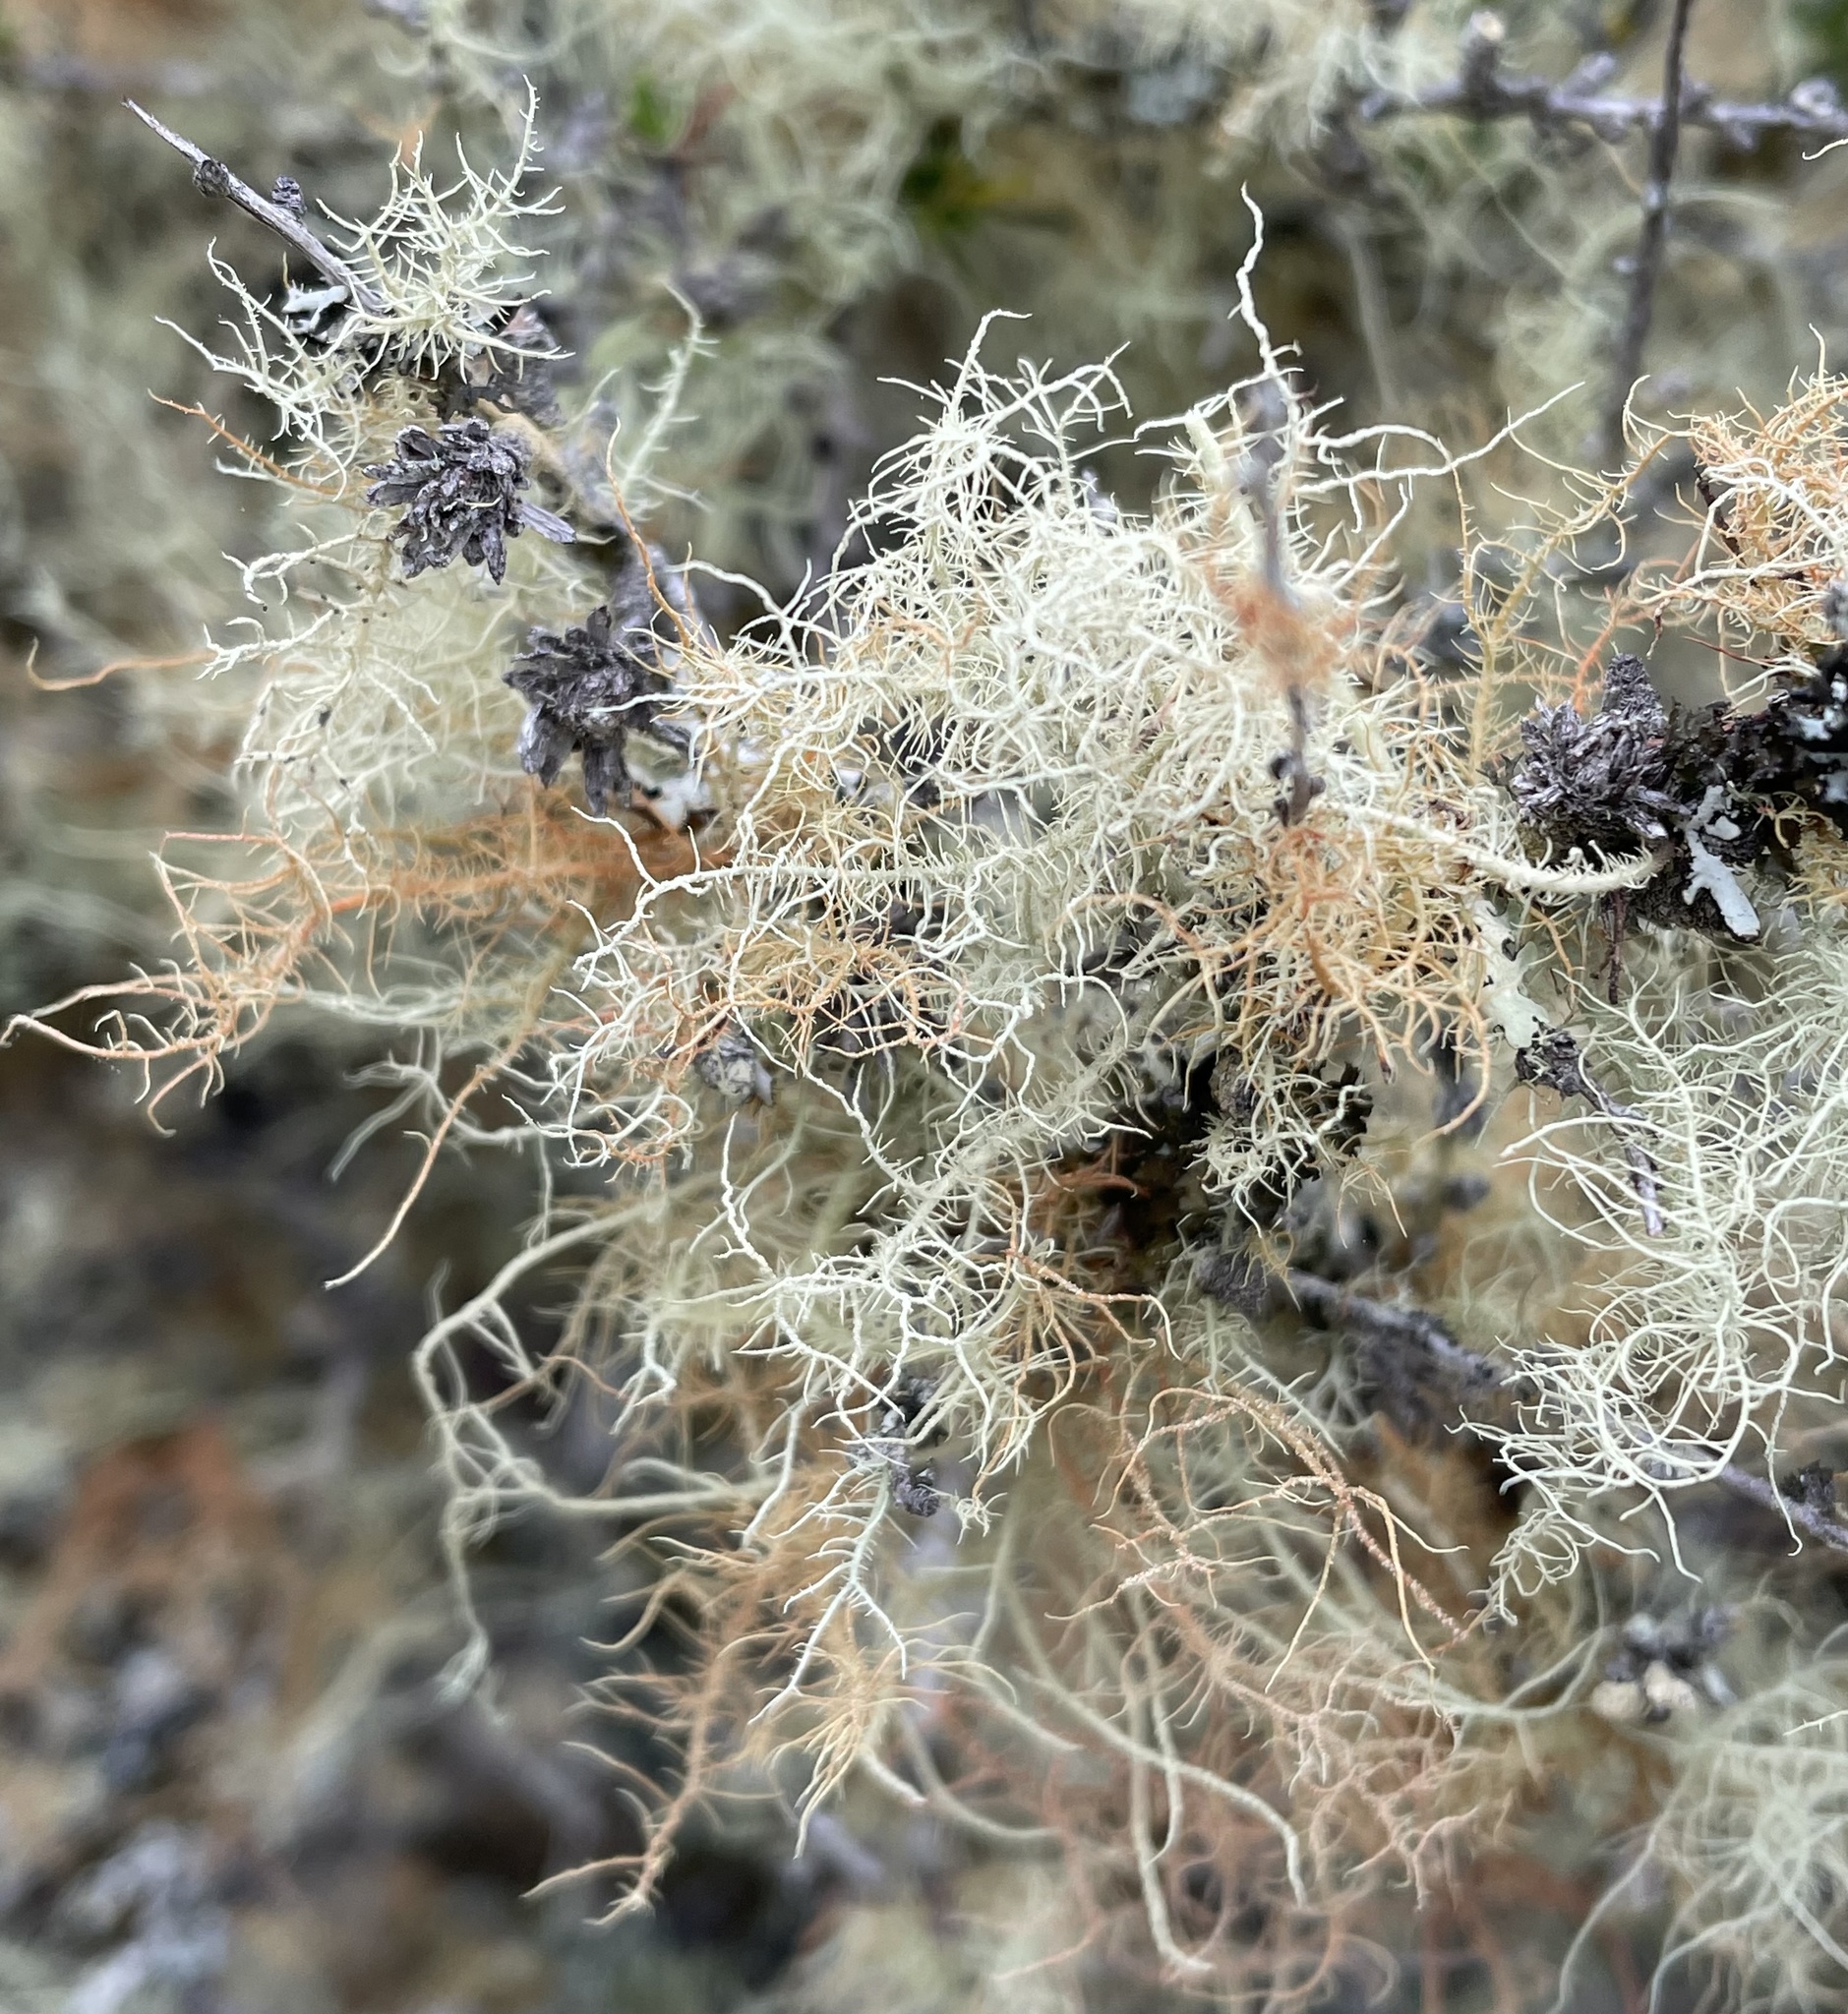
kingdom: Fungi
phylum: Ascomycota
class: Lecanoromycetes
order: Lecanorales
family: Parmeliaceae
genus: Usnea
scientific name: Usnea rubicunda
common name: Red beard lichen
